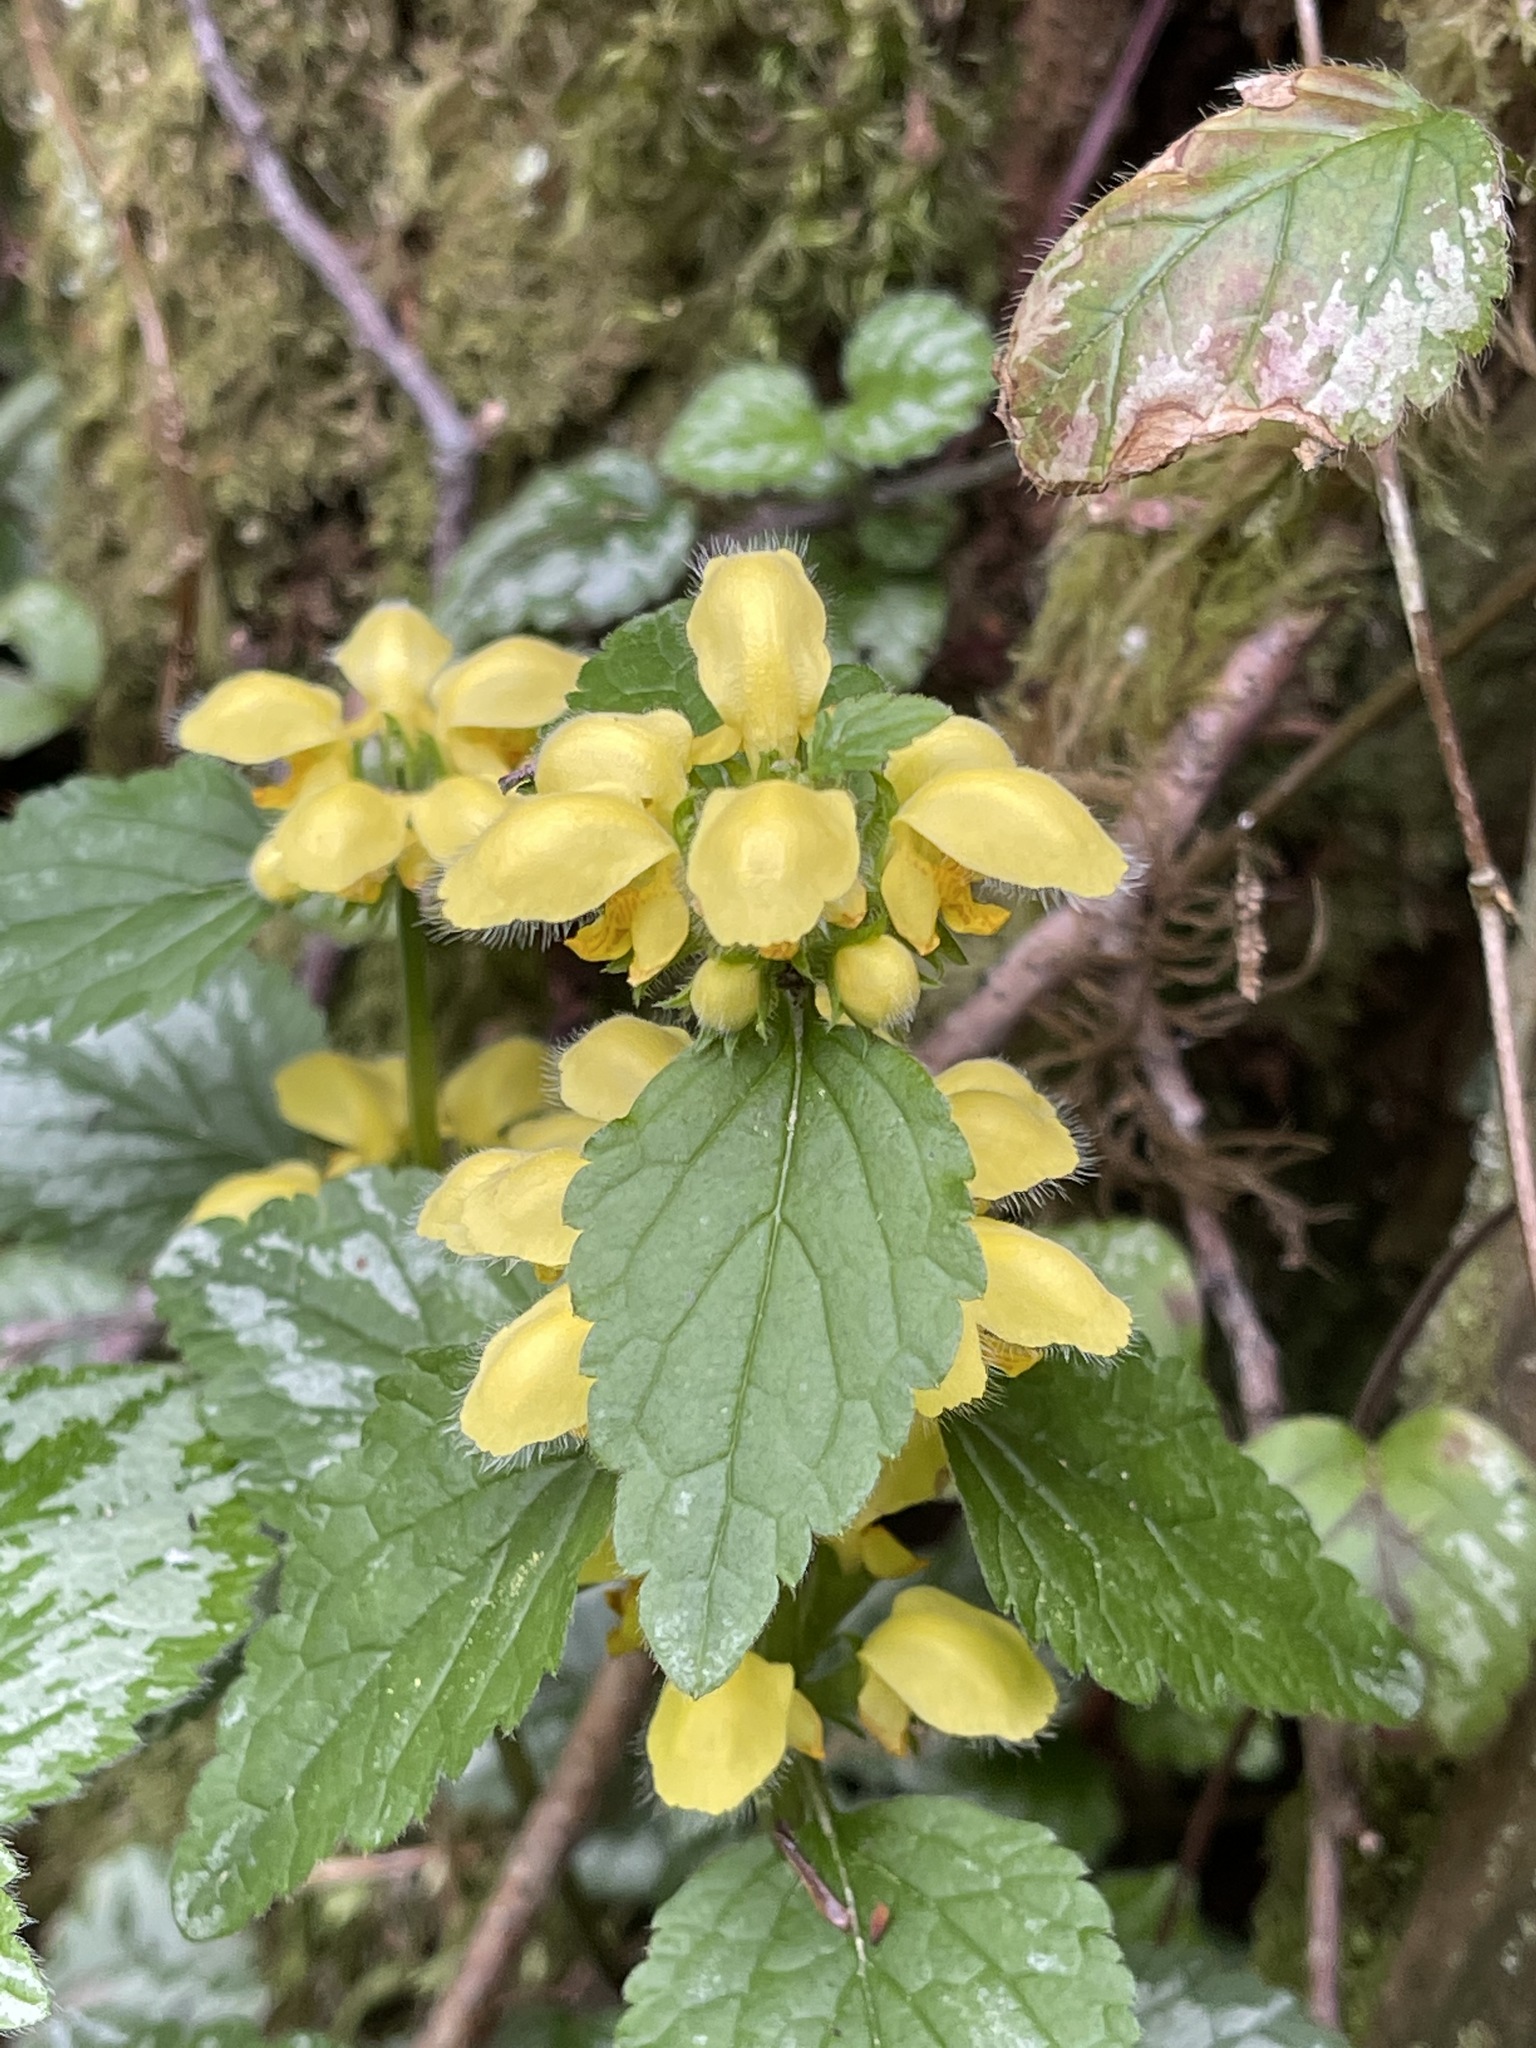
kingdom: Plantae
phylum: Tracheophyta
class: Magnoliopsida
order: Lamiales
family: Lamiaceae
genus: Lamium
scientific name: Lamium galeobdolon
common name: Yellow archangel
